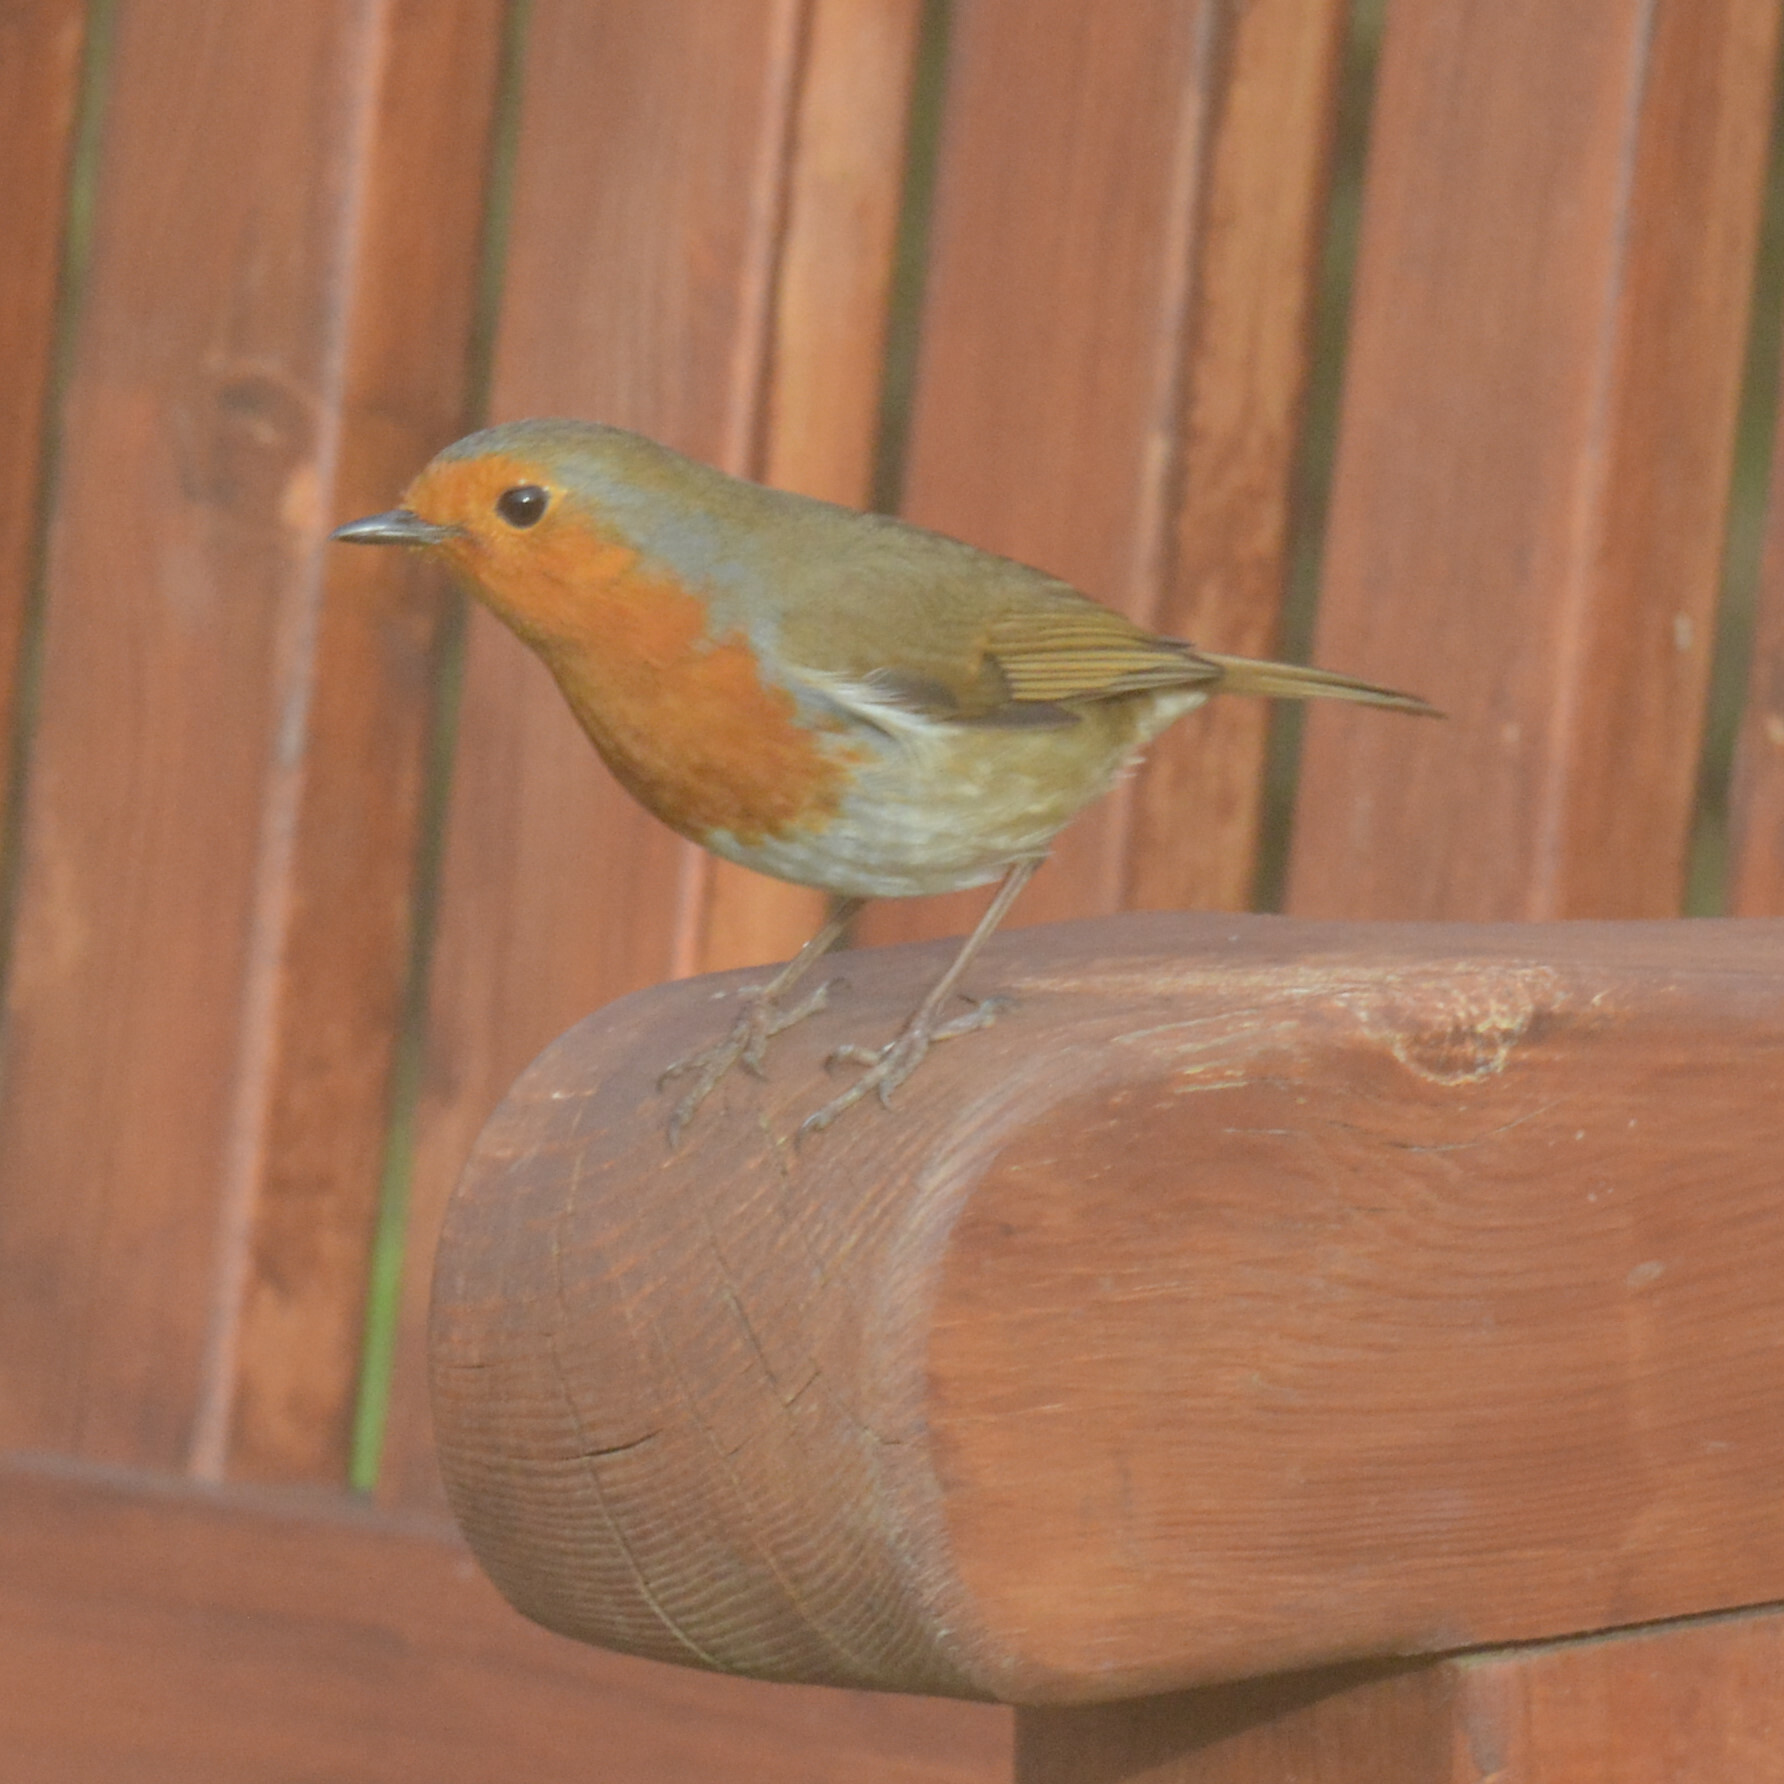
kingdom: Animalia
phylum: Chordata
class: Aves
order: Passeriformes
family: Muscicapidae
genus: Erithacus
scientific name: Erithacus rubecula
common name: European robin
